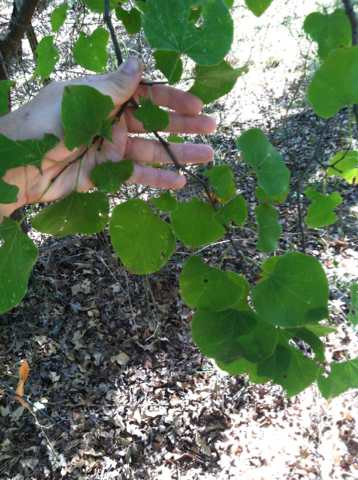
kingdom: Plantae
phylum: Tracheophyta
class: Magnoliopsida
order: Fabales
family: Fabaceae
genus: Cercis
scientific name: Cercis canadensis
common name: Eastern redbud
